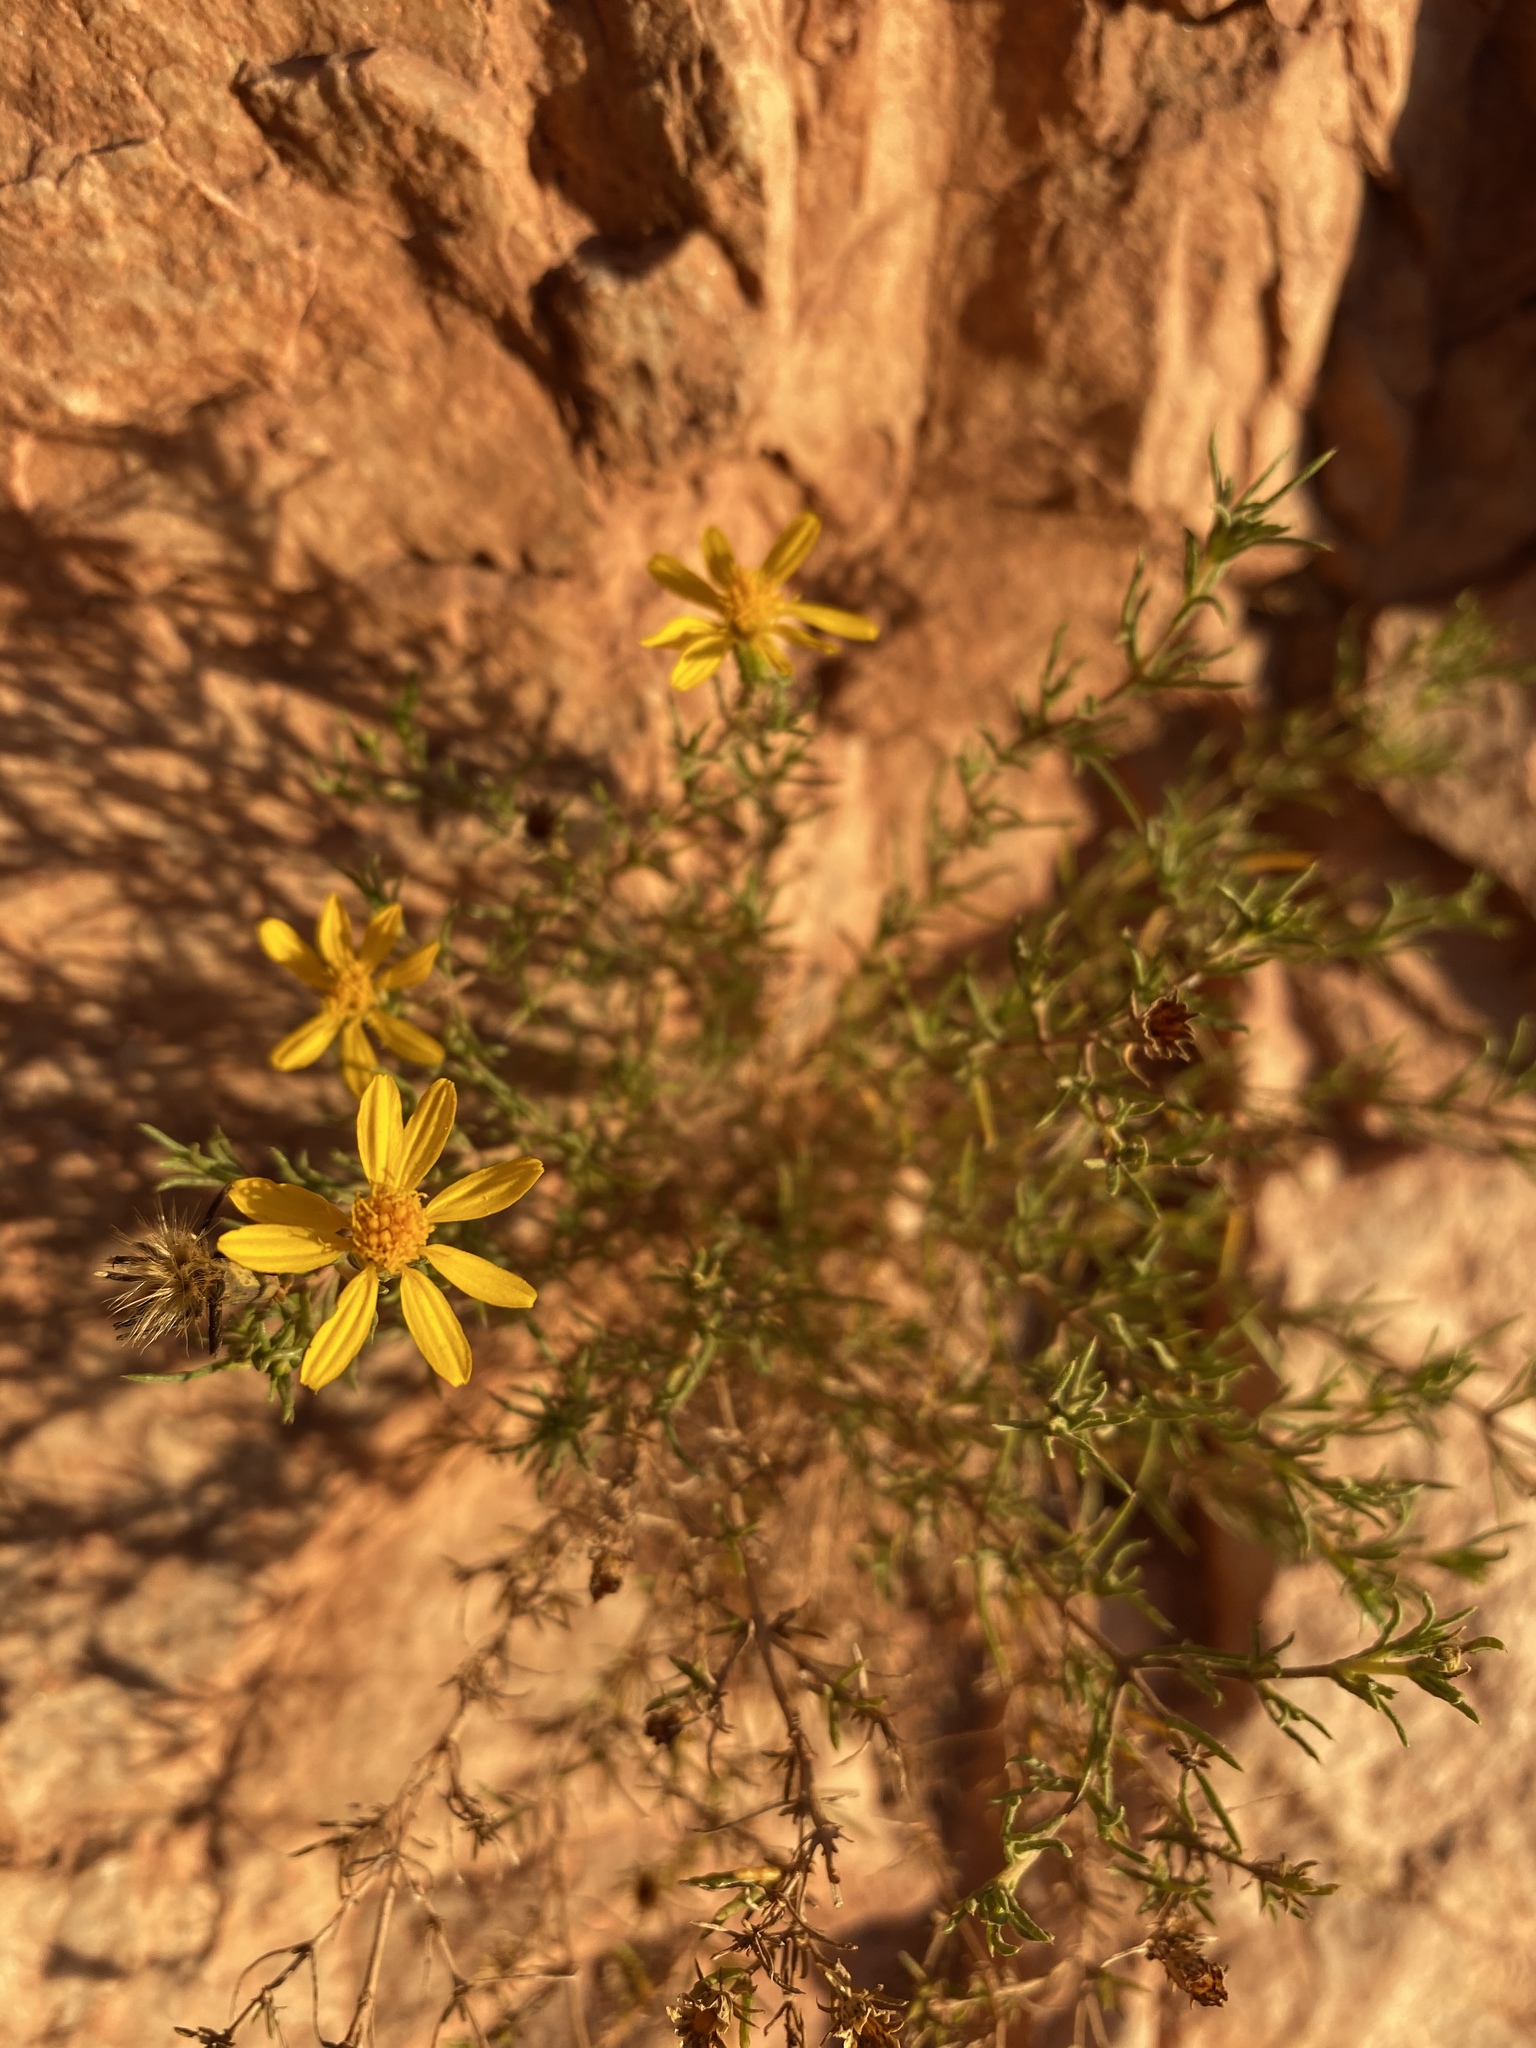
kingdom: Plantae
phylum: Tracheophyta
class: Magnoliopsida
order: Asterales
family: Asteraceae
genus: Thymophylla
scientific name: Thymophylla acerosa
